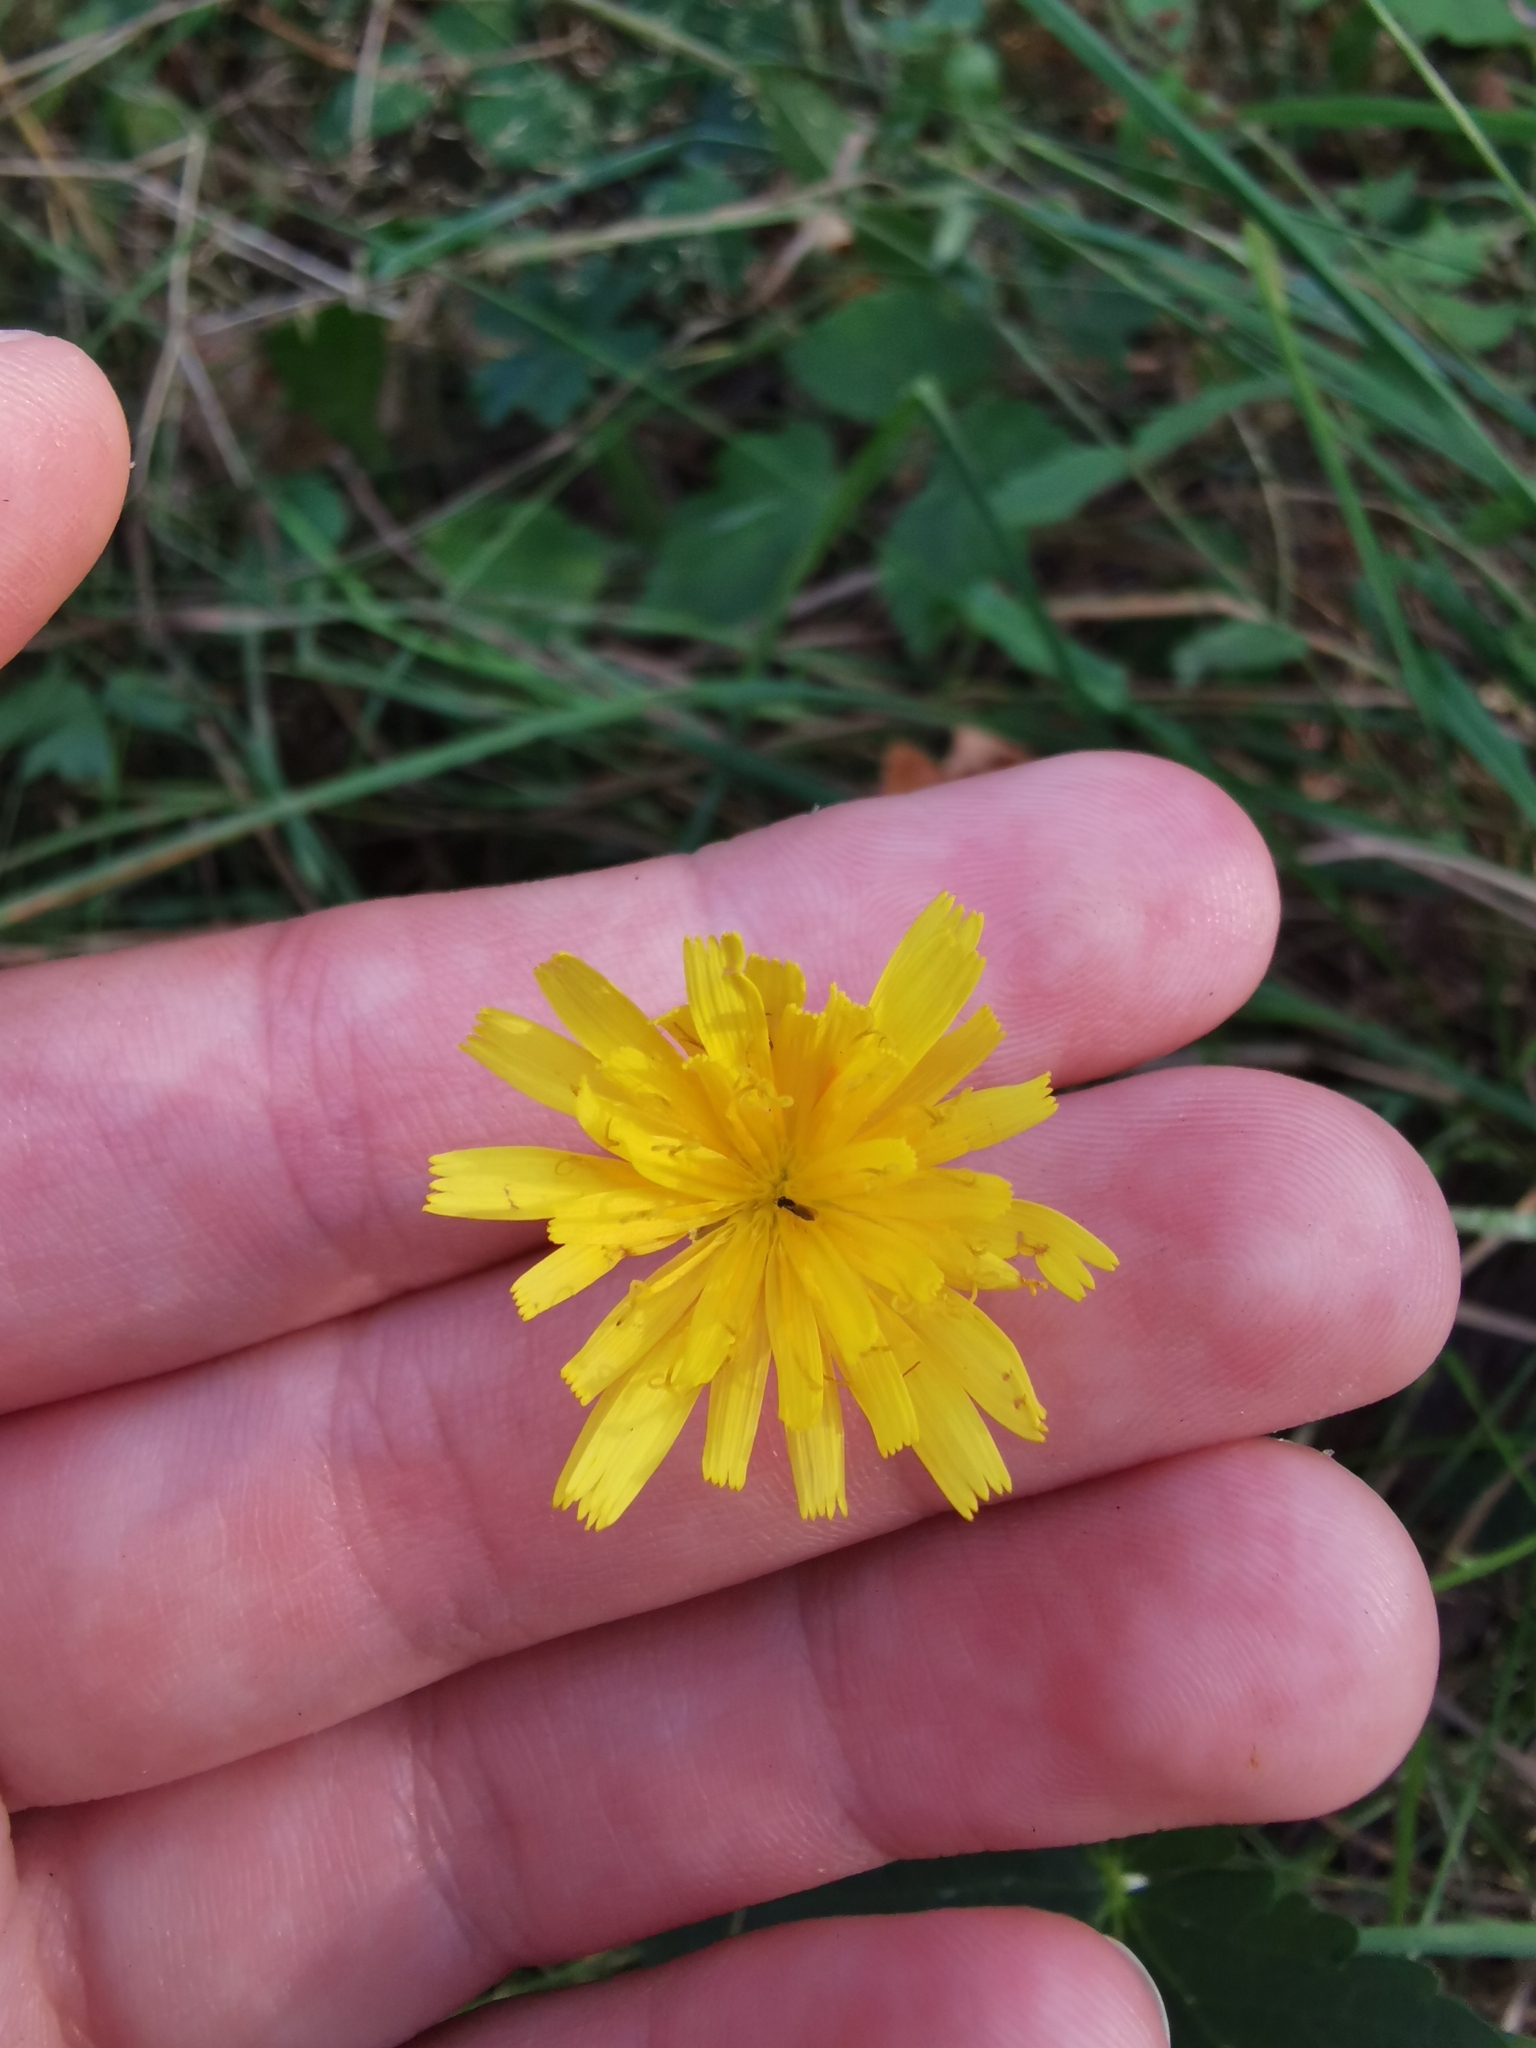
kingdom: Plantae
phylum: Tracheophyta
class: Magnoliopsida
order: Asterales
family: Asteraceae
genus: Scorzoneroides
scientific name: Scorzoneroides autumnalis
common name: Autumn hawkbit
